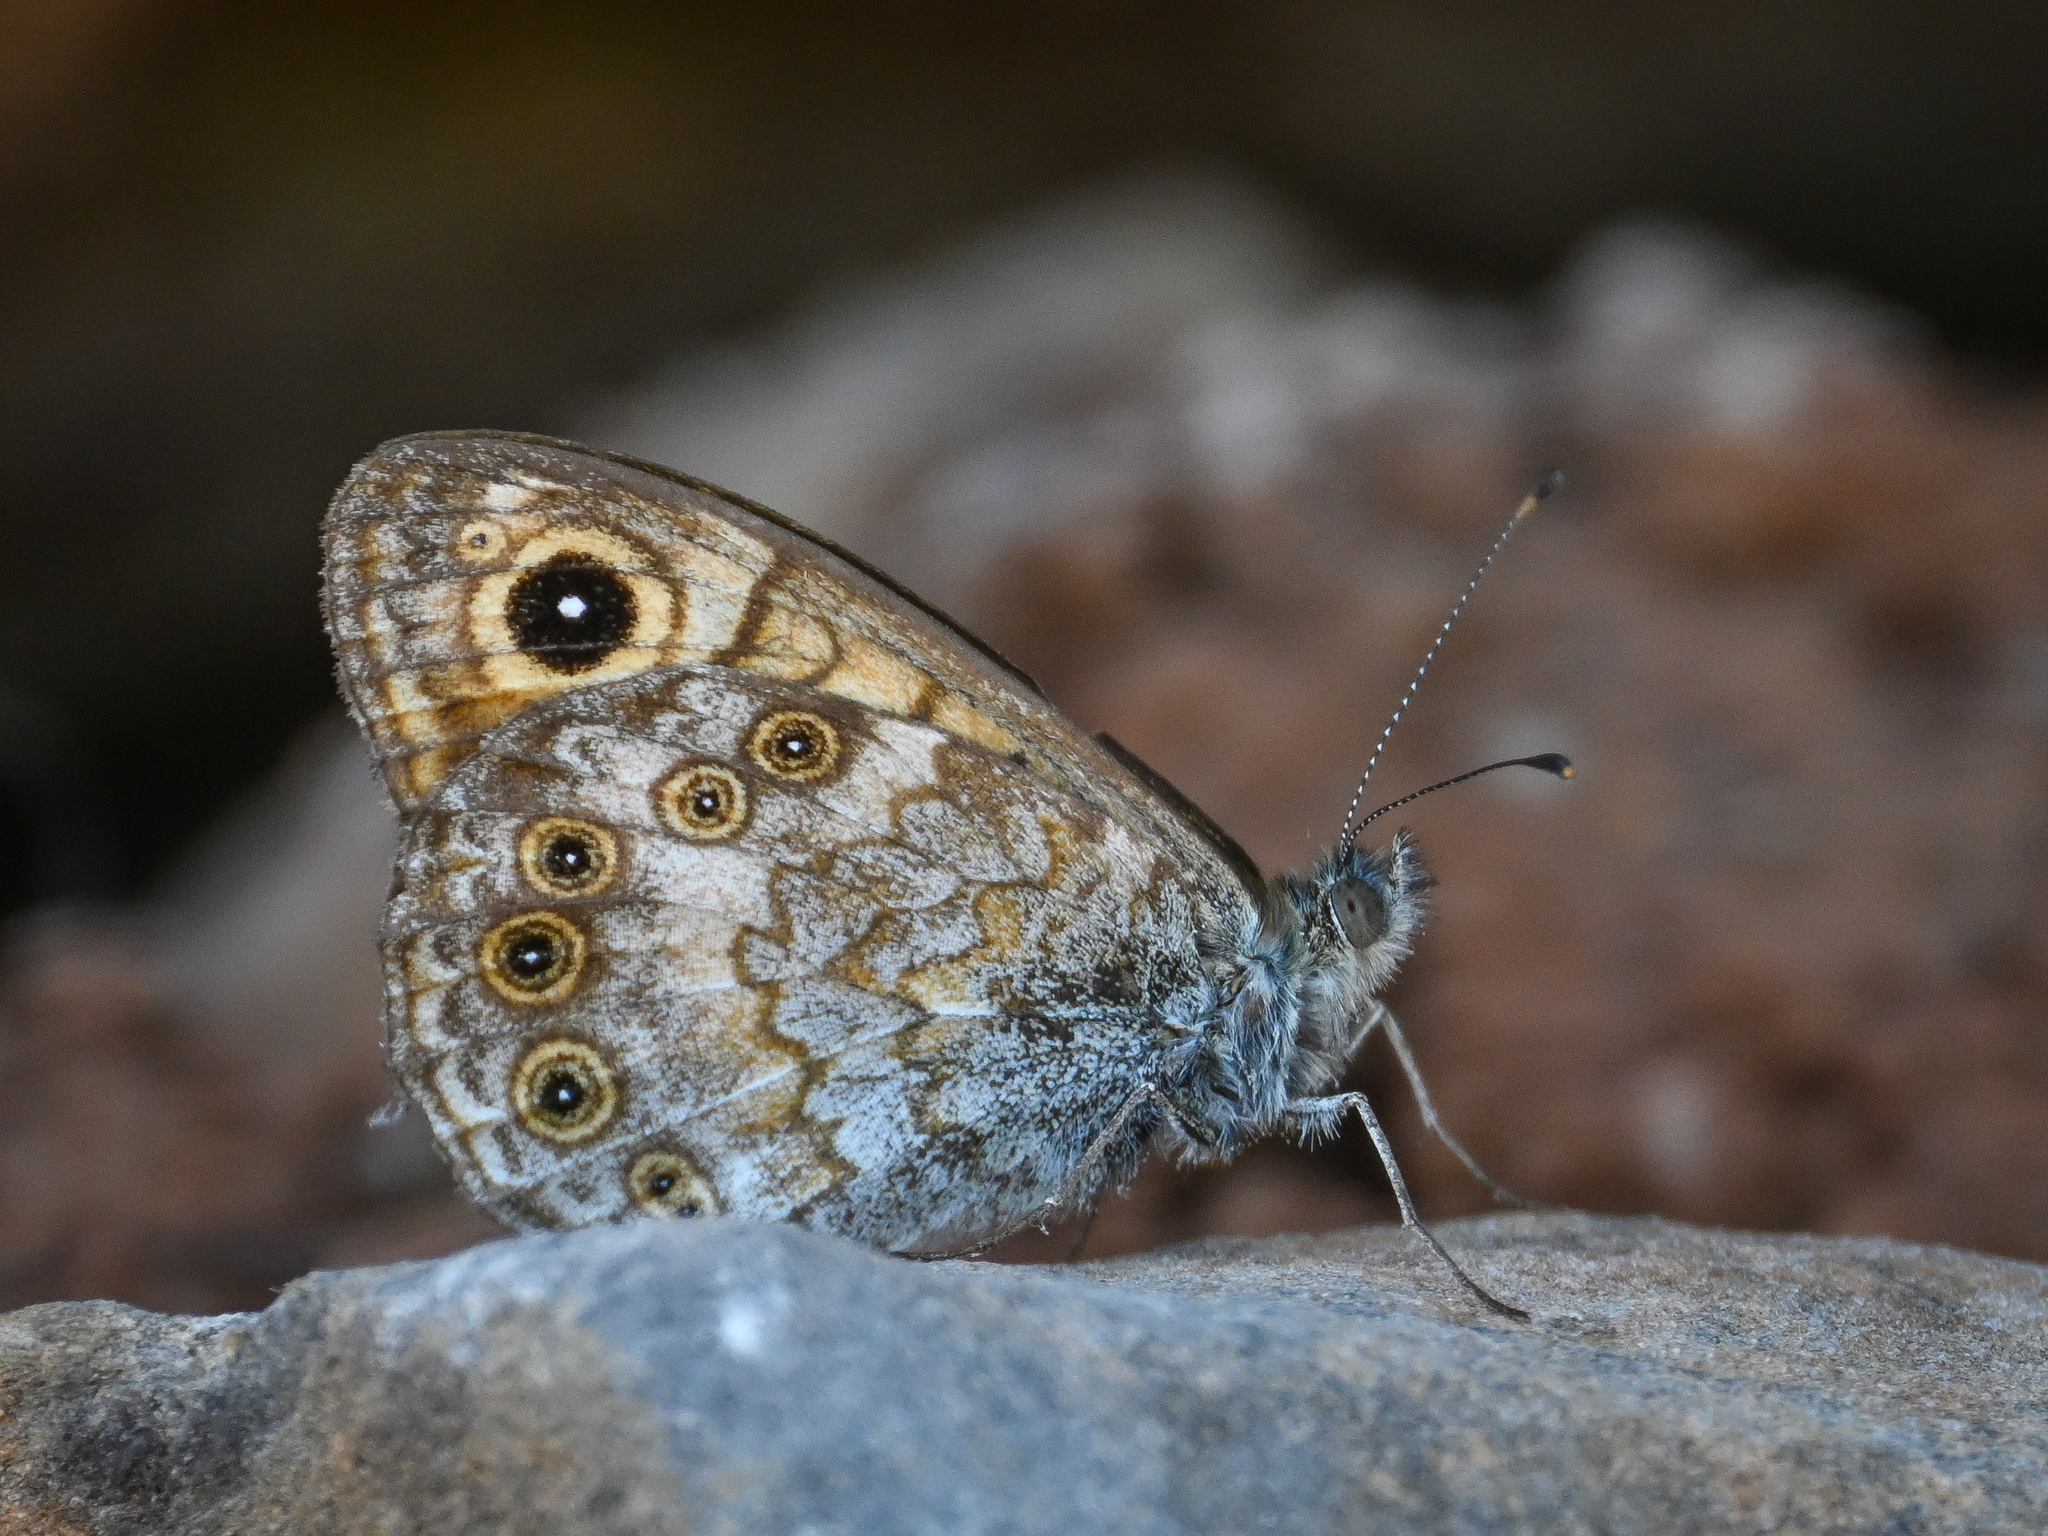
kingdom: Animalia
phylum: Arthropoda
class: Insecta
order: Lepidoptera
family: Nymphalidae
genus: Pararge
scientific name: Pararge Lasiommata megera
